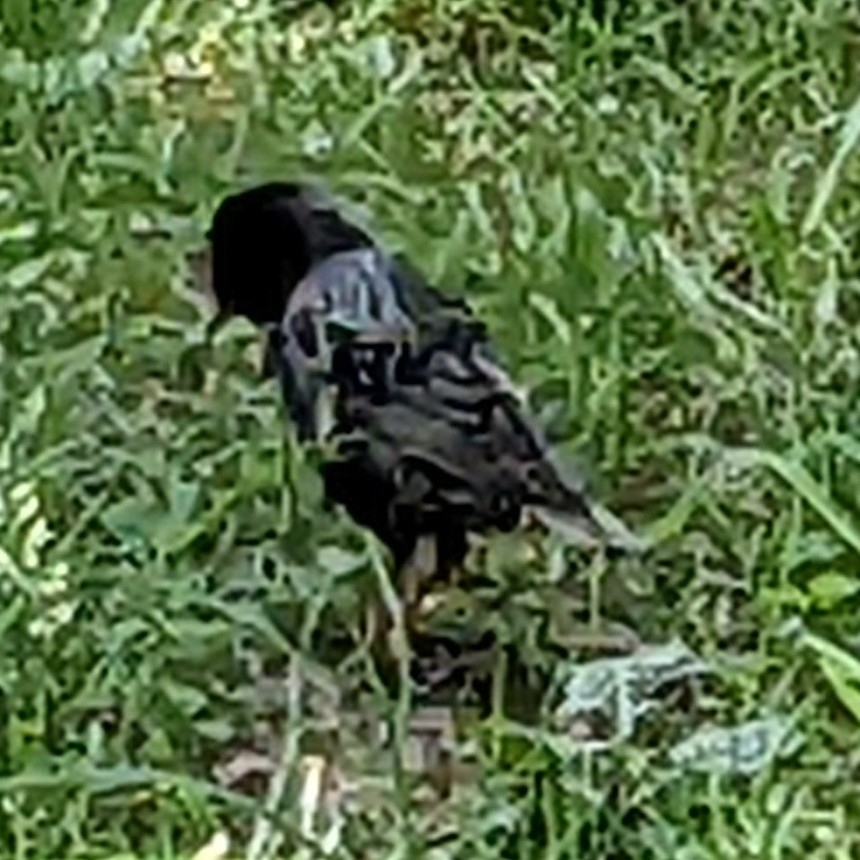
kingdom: Animalia
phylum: Chordata
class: Aves
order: Passeriformes
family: Sturnidae
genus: Sturnus
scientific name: Sturnus vulgaris
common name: Common starling
